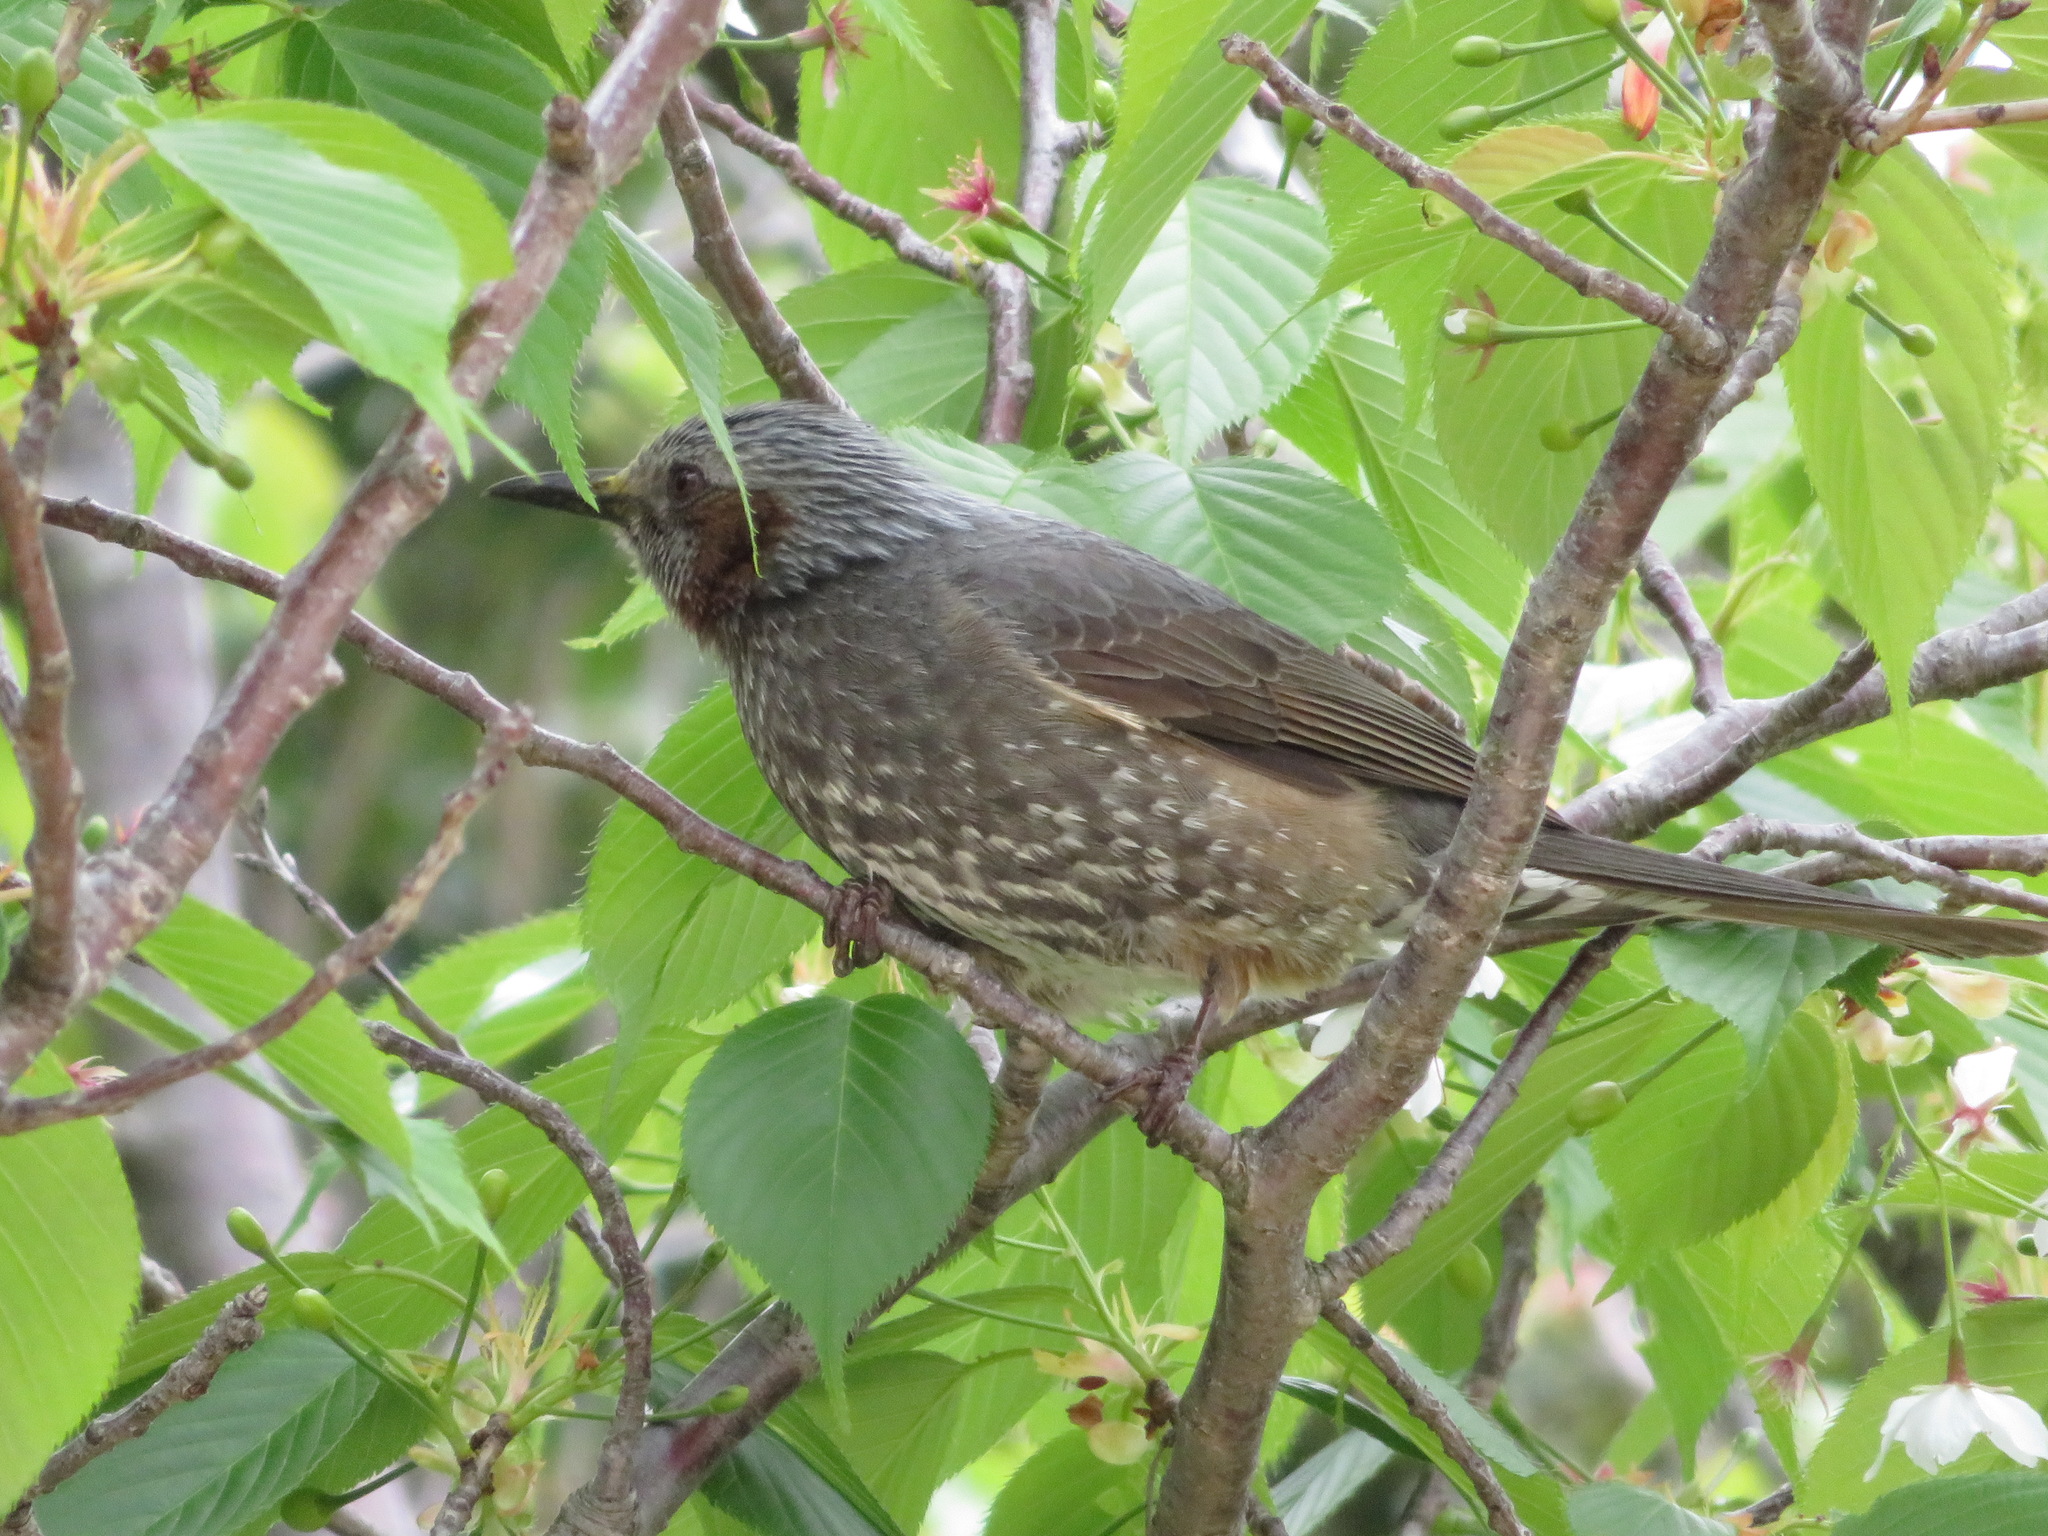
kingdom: Animalia
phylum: Chordata
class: Aves
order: Passeriformes
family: Pycnonotidae
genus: Hypsipetes
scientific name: Hypsipetes amaurotis
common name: Brown-eared bulbul
